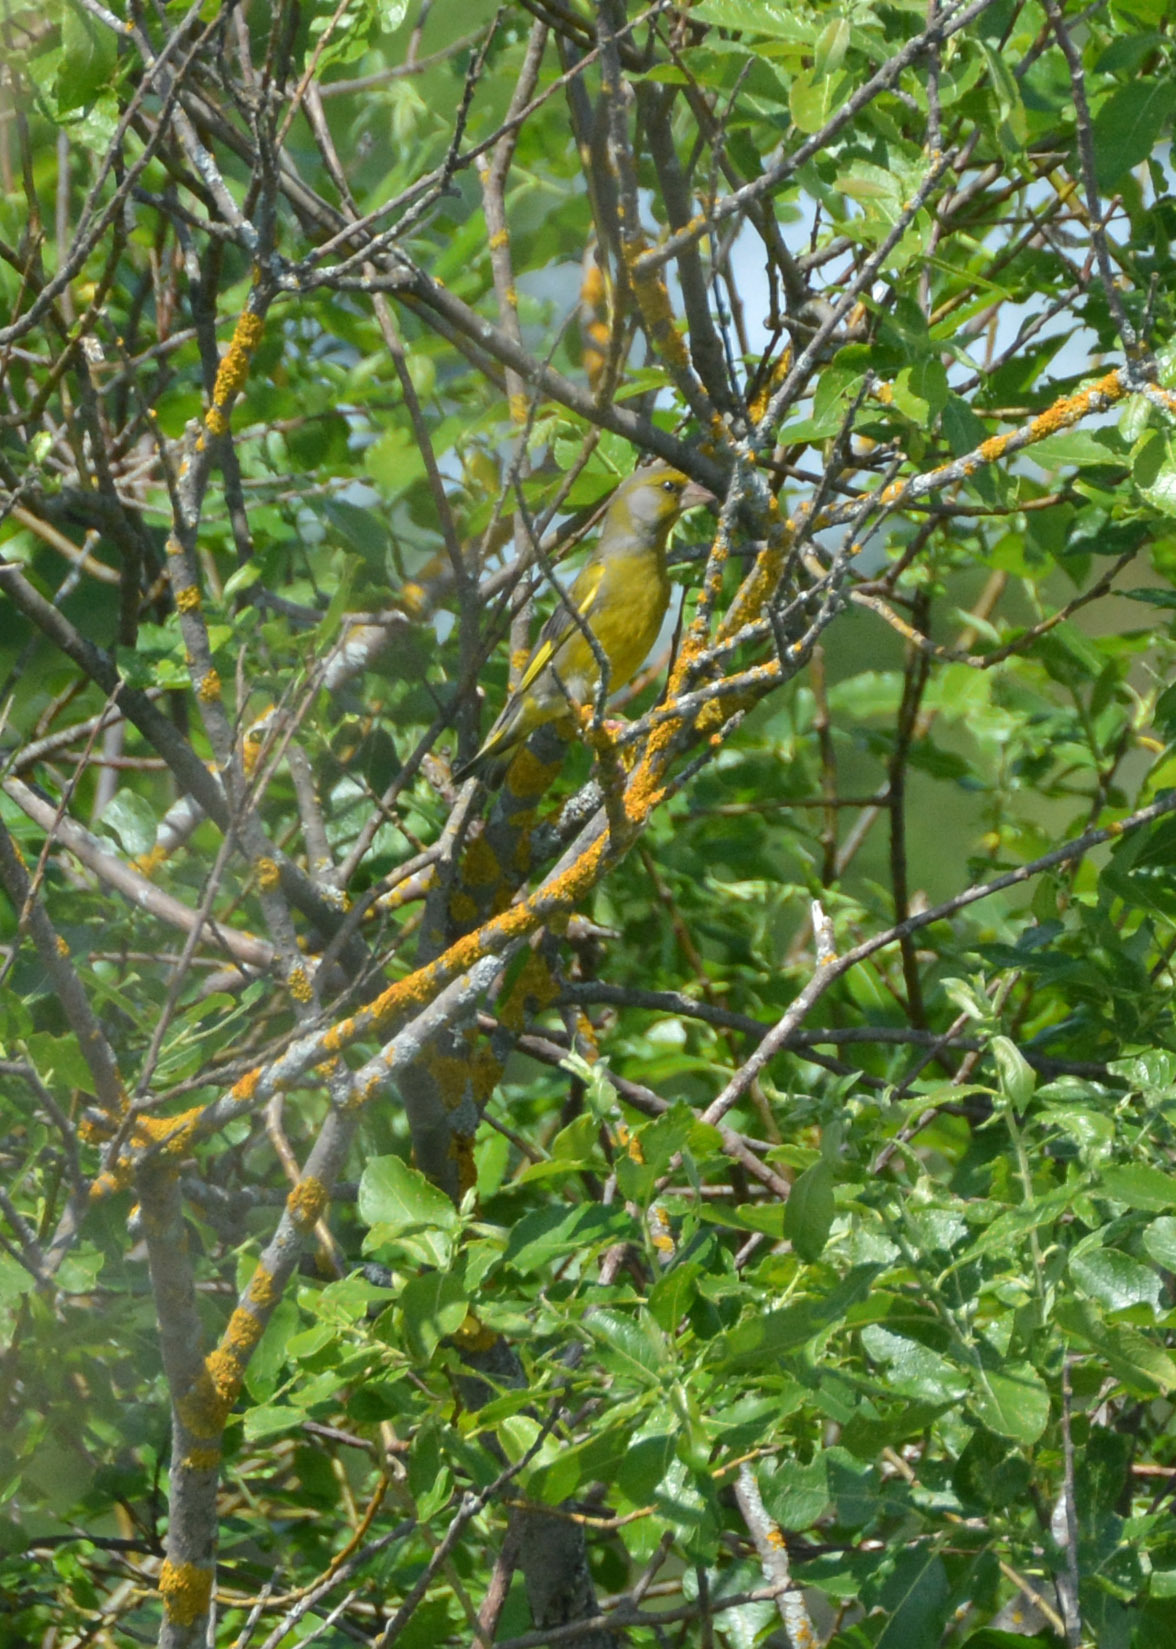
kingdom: Plantae
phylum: Tracheophyta
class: Liliopsida
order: Poales
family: Poaceae
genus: Chloris
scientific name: Chloris chloris
